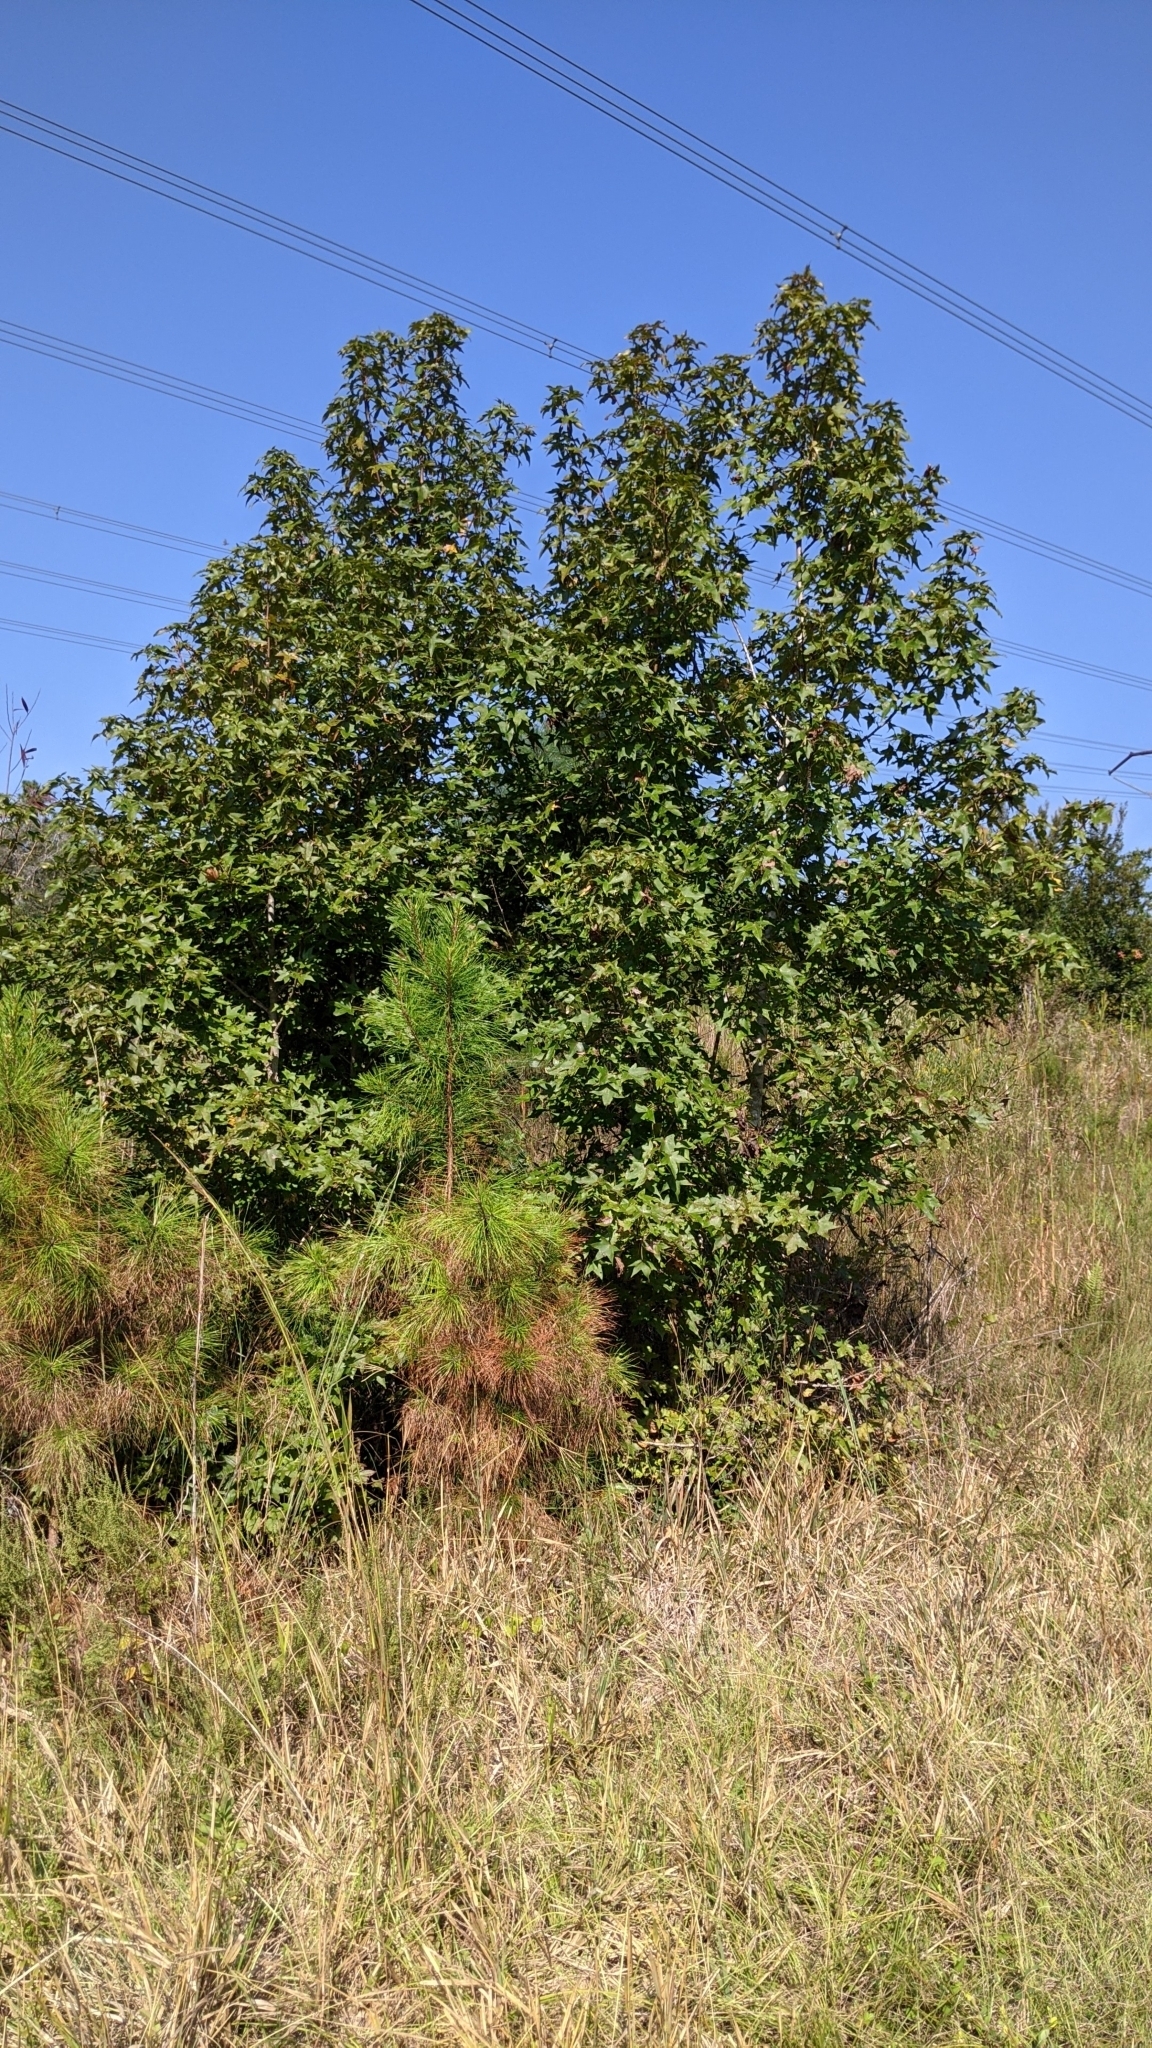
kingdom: Plantae
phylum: Tracheophyta
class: Magnoliopsida
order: Saxifragales
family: Altingiaceae
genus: Liquidambar
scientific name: Liquidambar styraciflua
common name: Sweet gum
